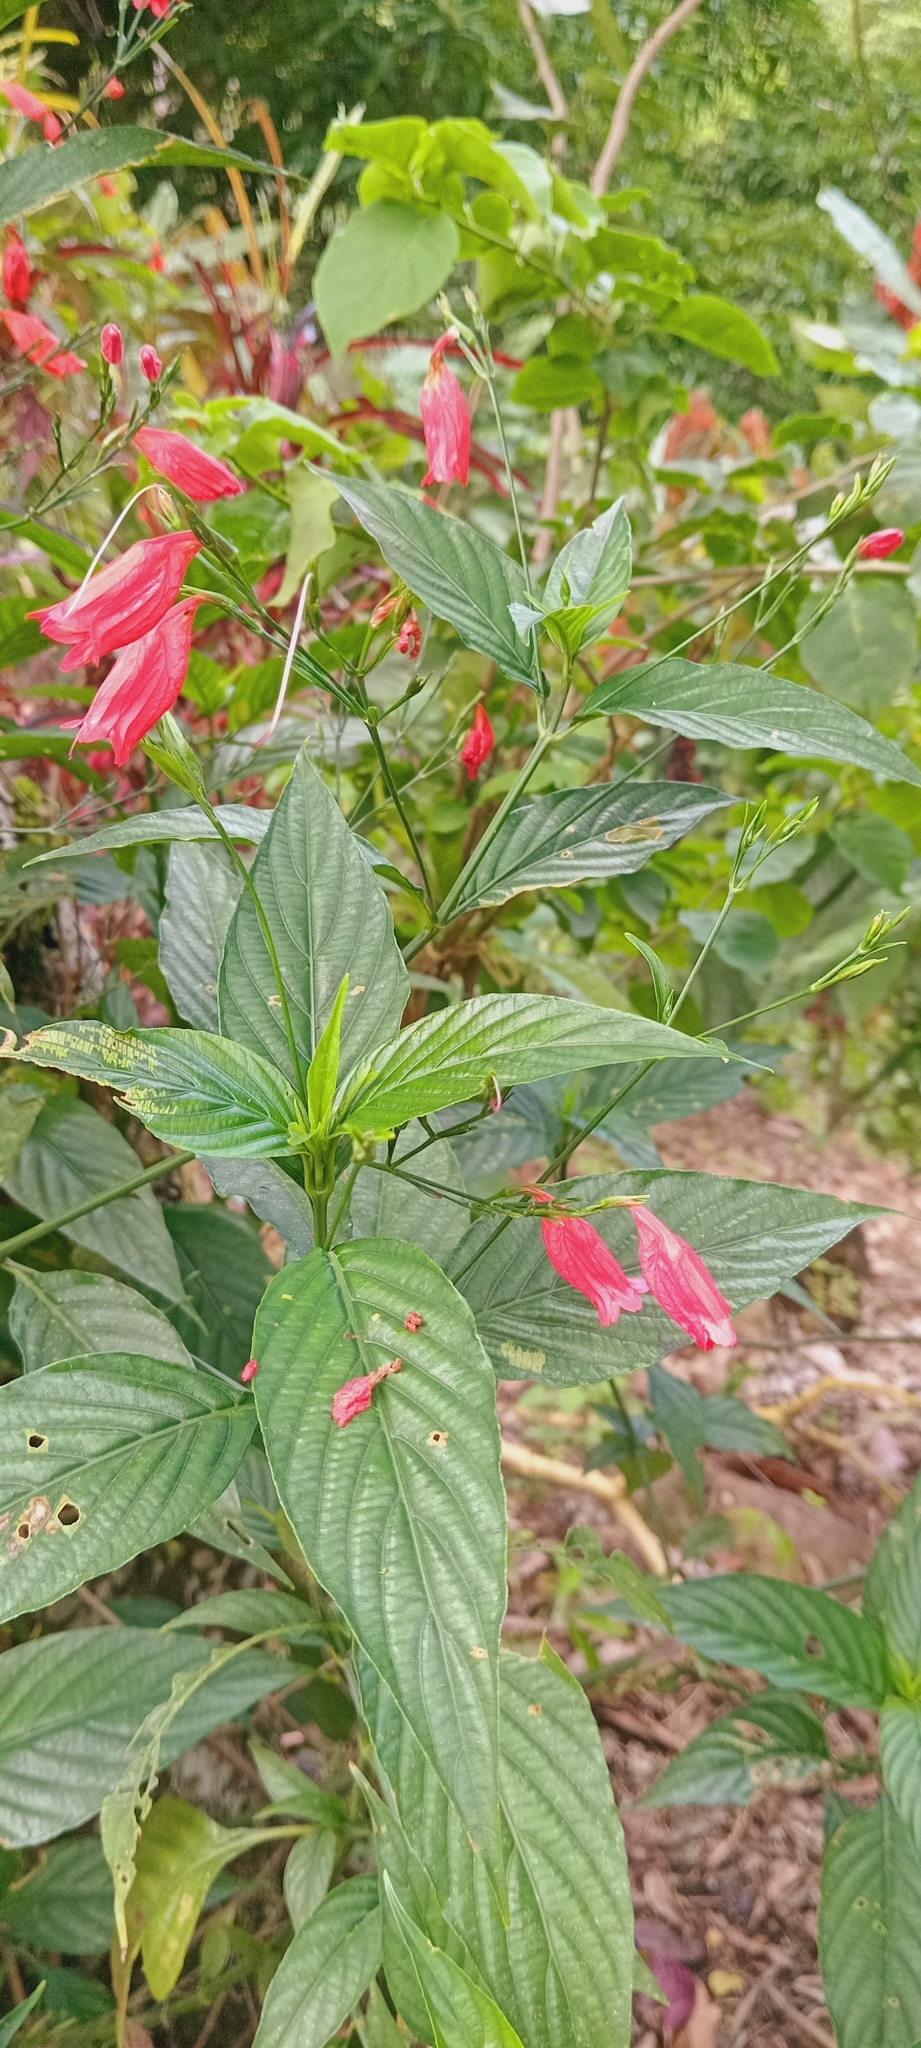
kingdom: Plantae
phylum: Tracheophyta
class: Magnoliopsida
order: Lamiales
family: Acanthaceae
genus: Ruellia
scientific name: Ruellia brevifolia
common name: Tropical wild petunia
